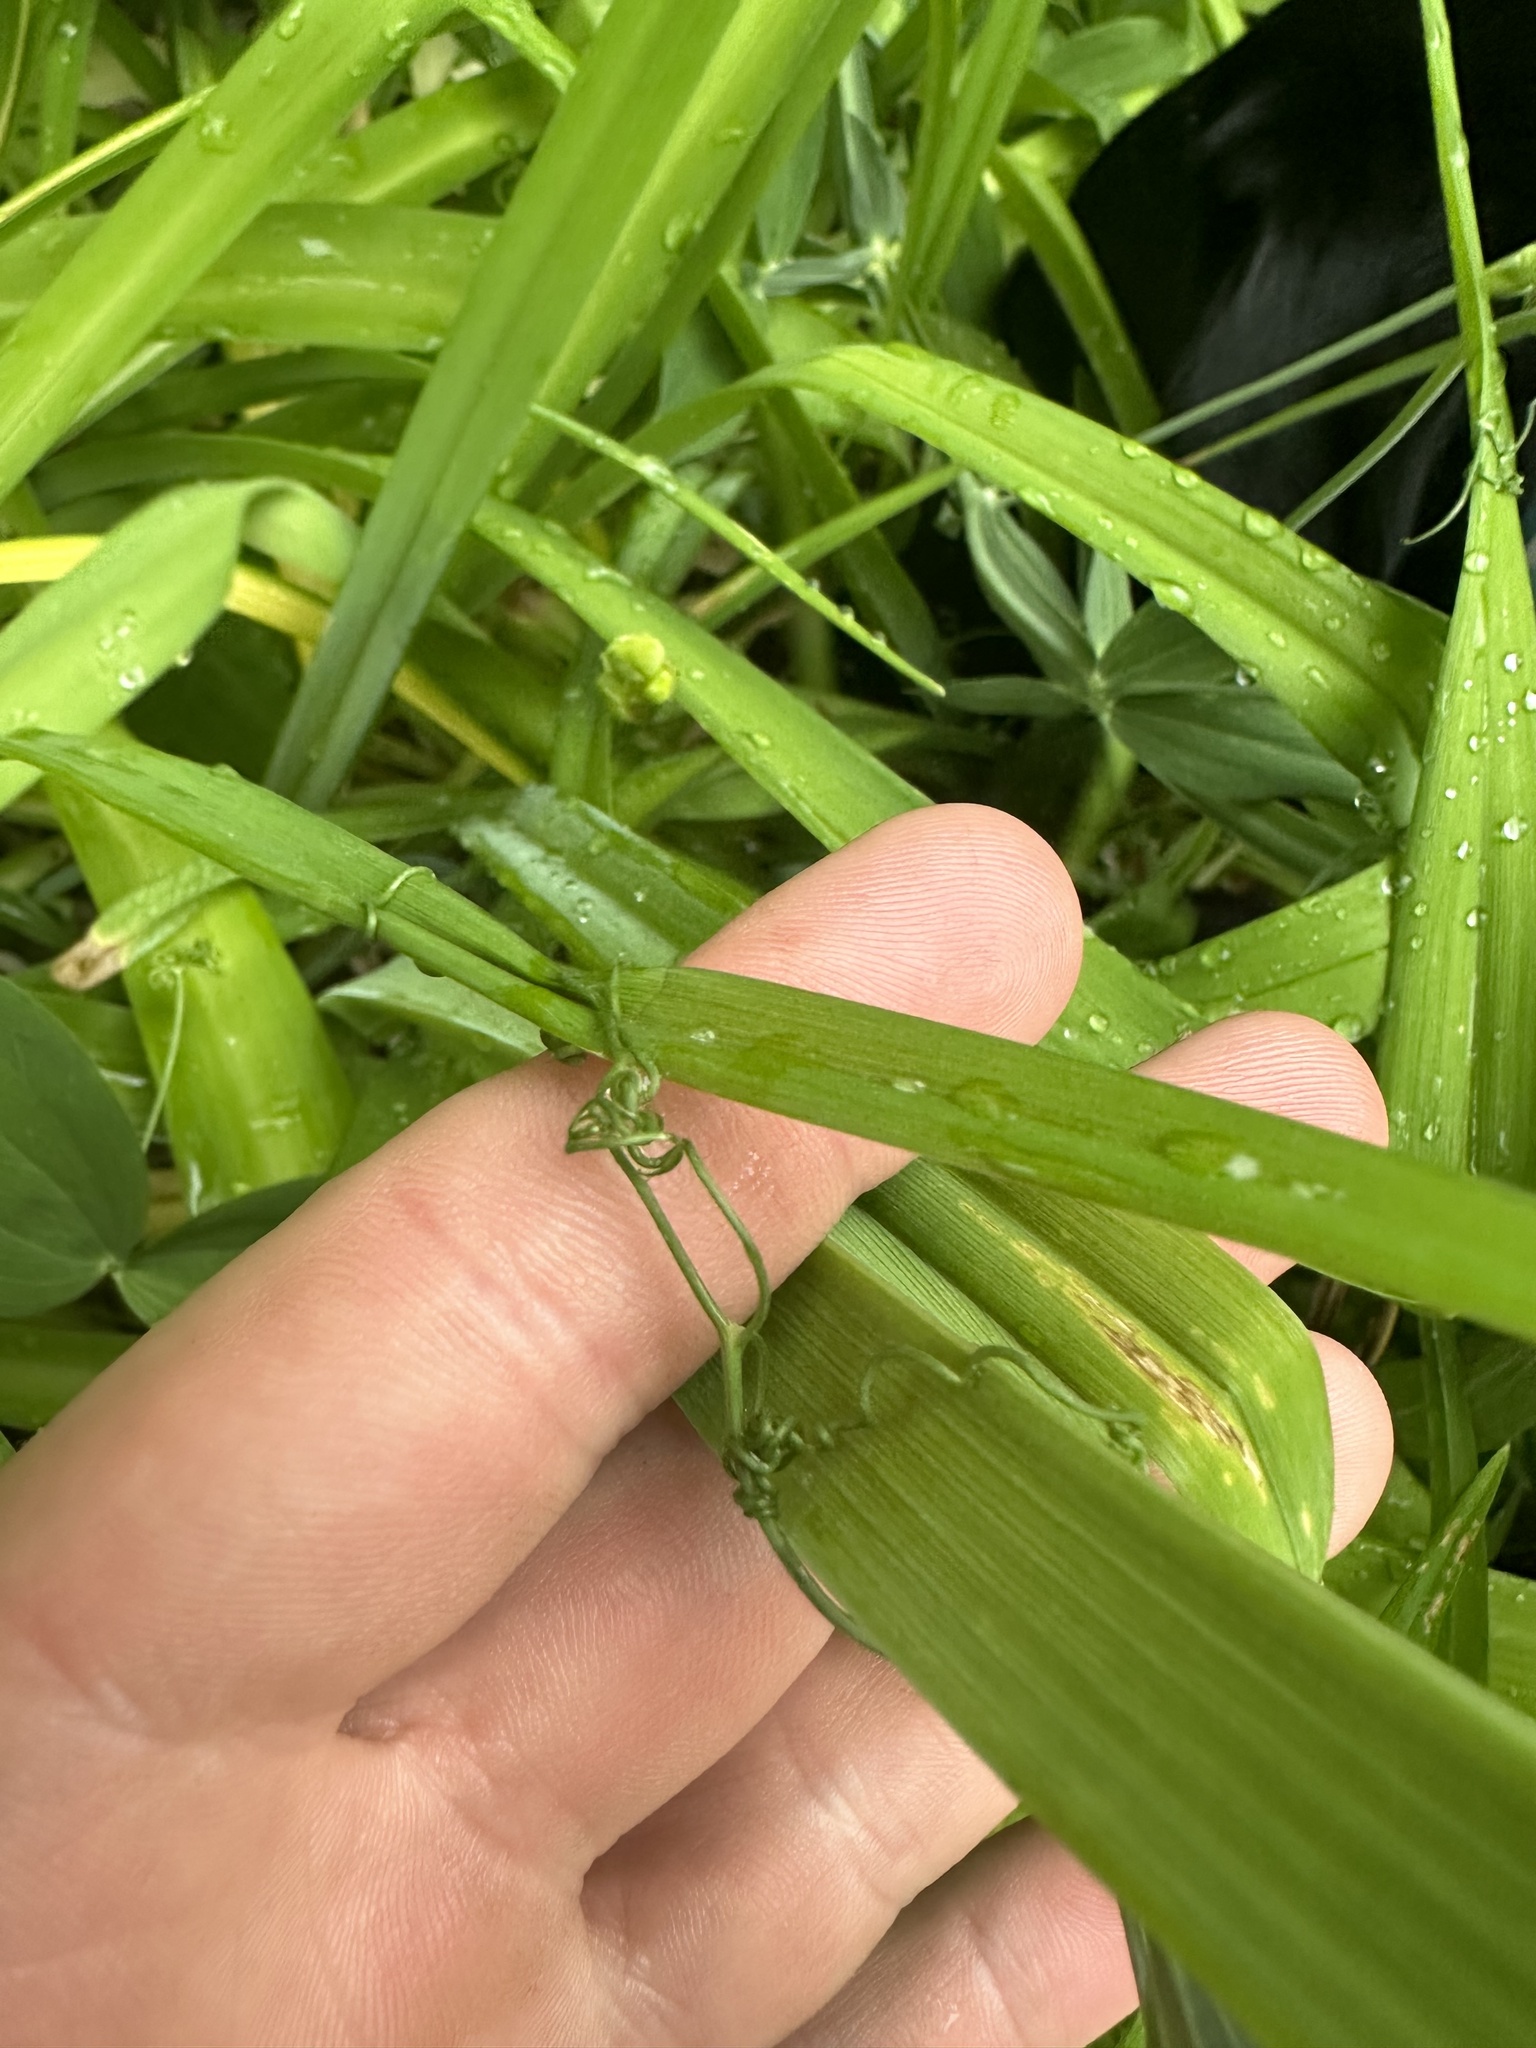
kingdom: Plantae
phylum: Tracheophyta
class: Magnoliopsida
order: Fabales
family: Fabaceae
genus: Lathyrus
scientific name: Lathyrus latifolius
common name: Perennial pea
